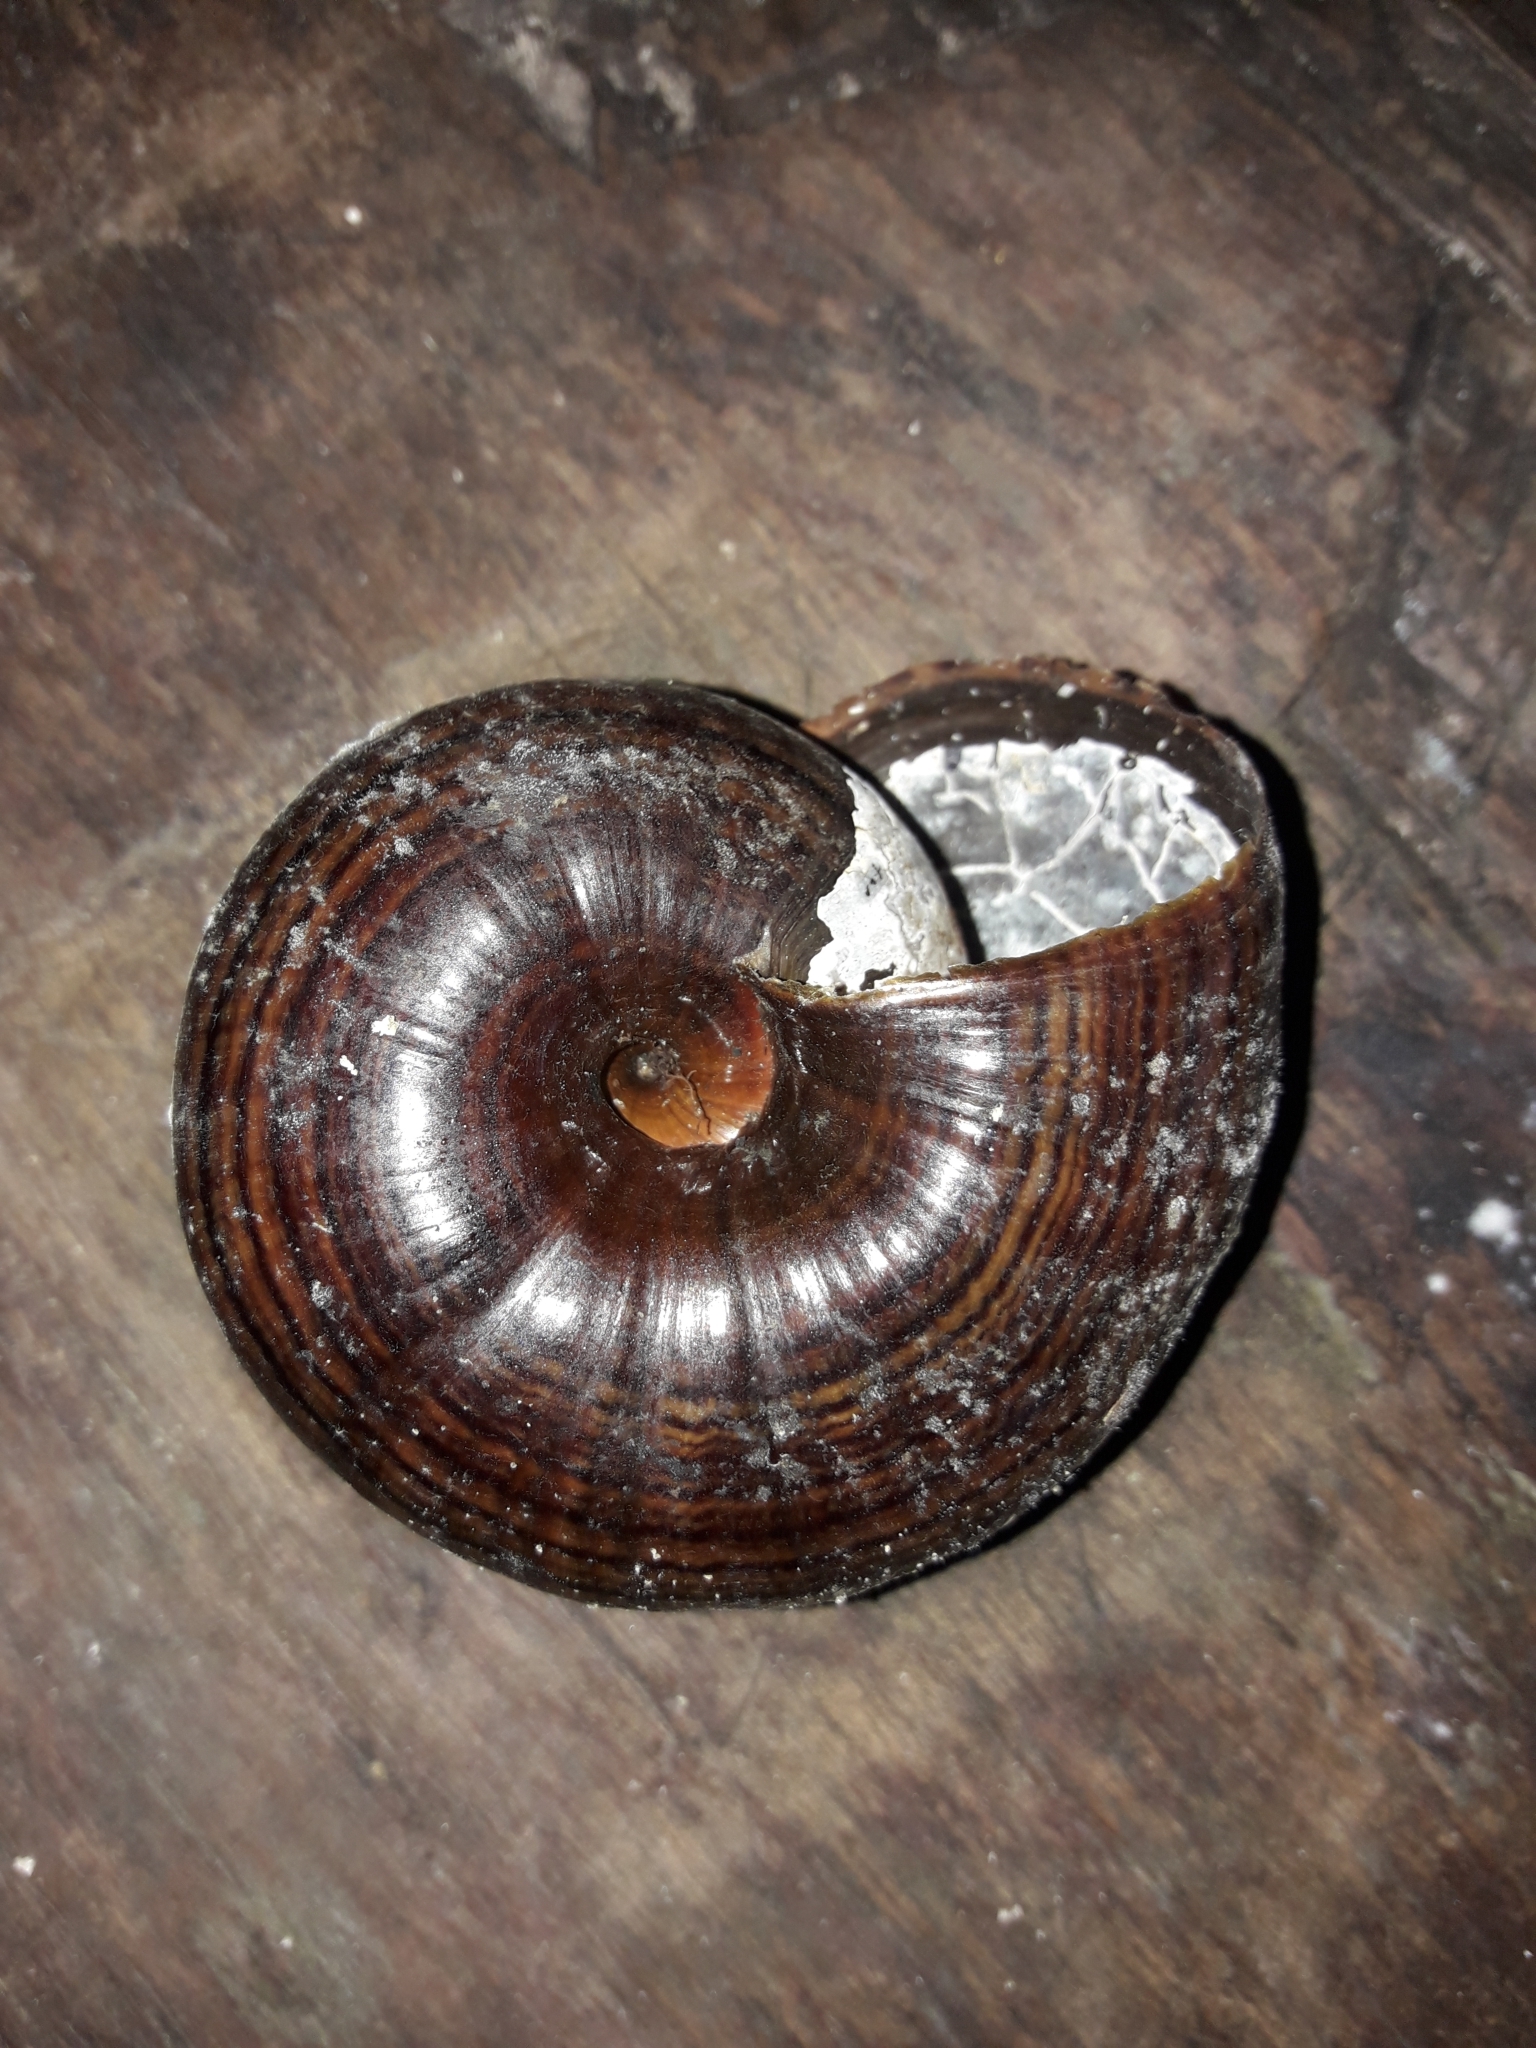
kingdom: Animalia
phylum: Mollusca
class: Gastropoda
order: Stylommatophora
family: Rhytididae
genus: Powelliphanta
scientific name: Powelliphanta hochstetteri
